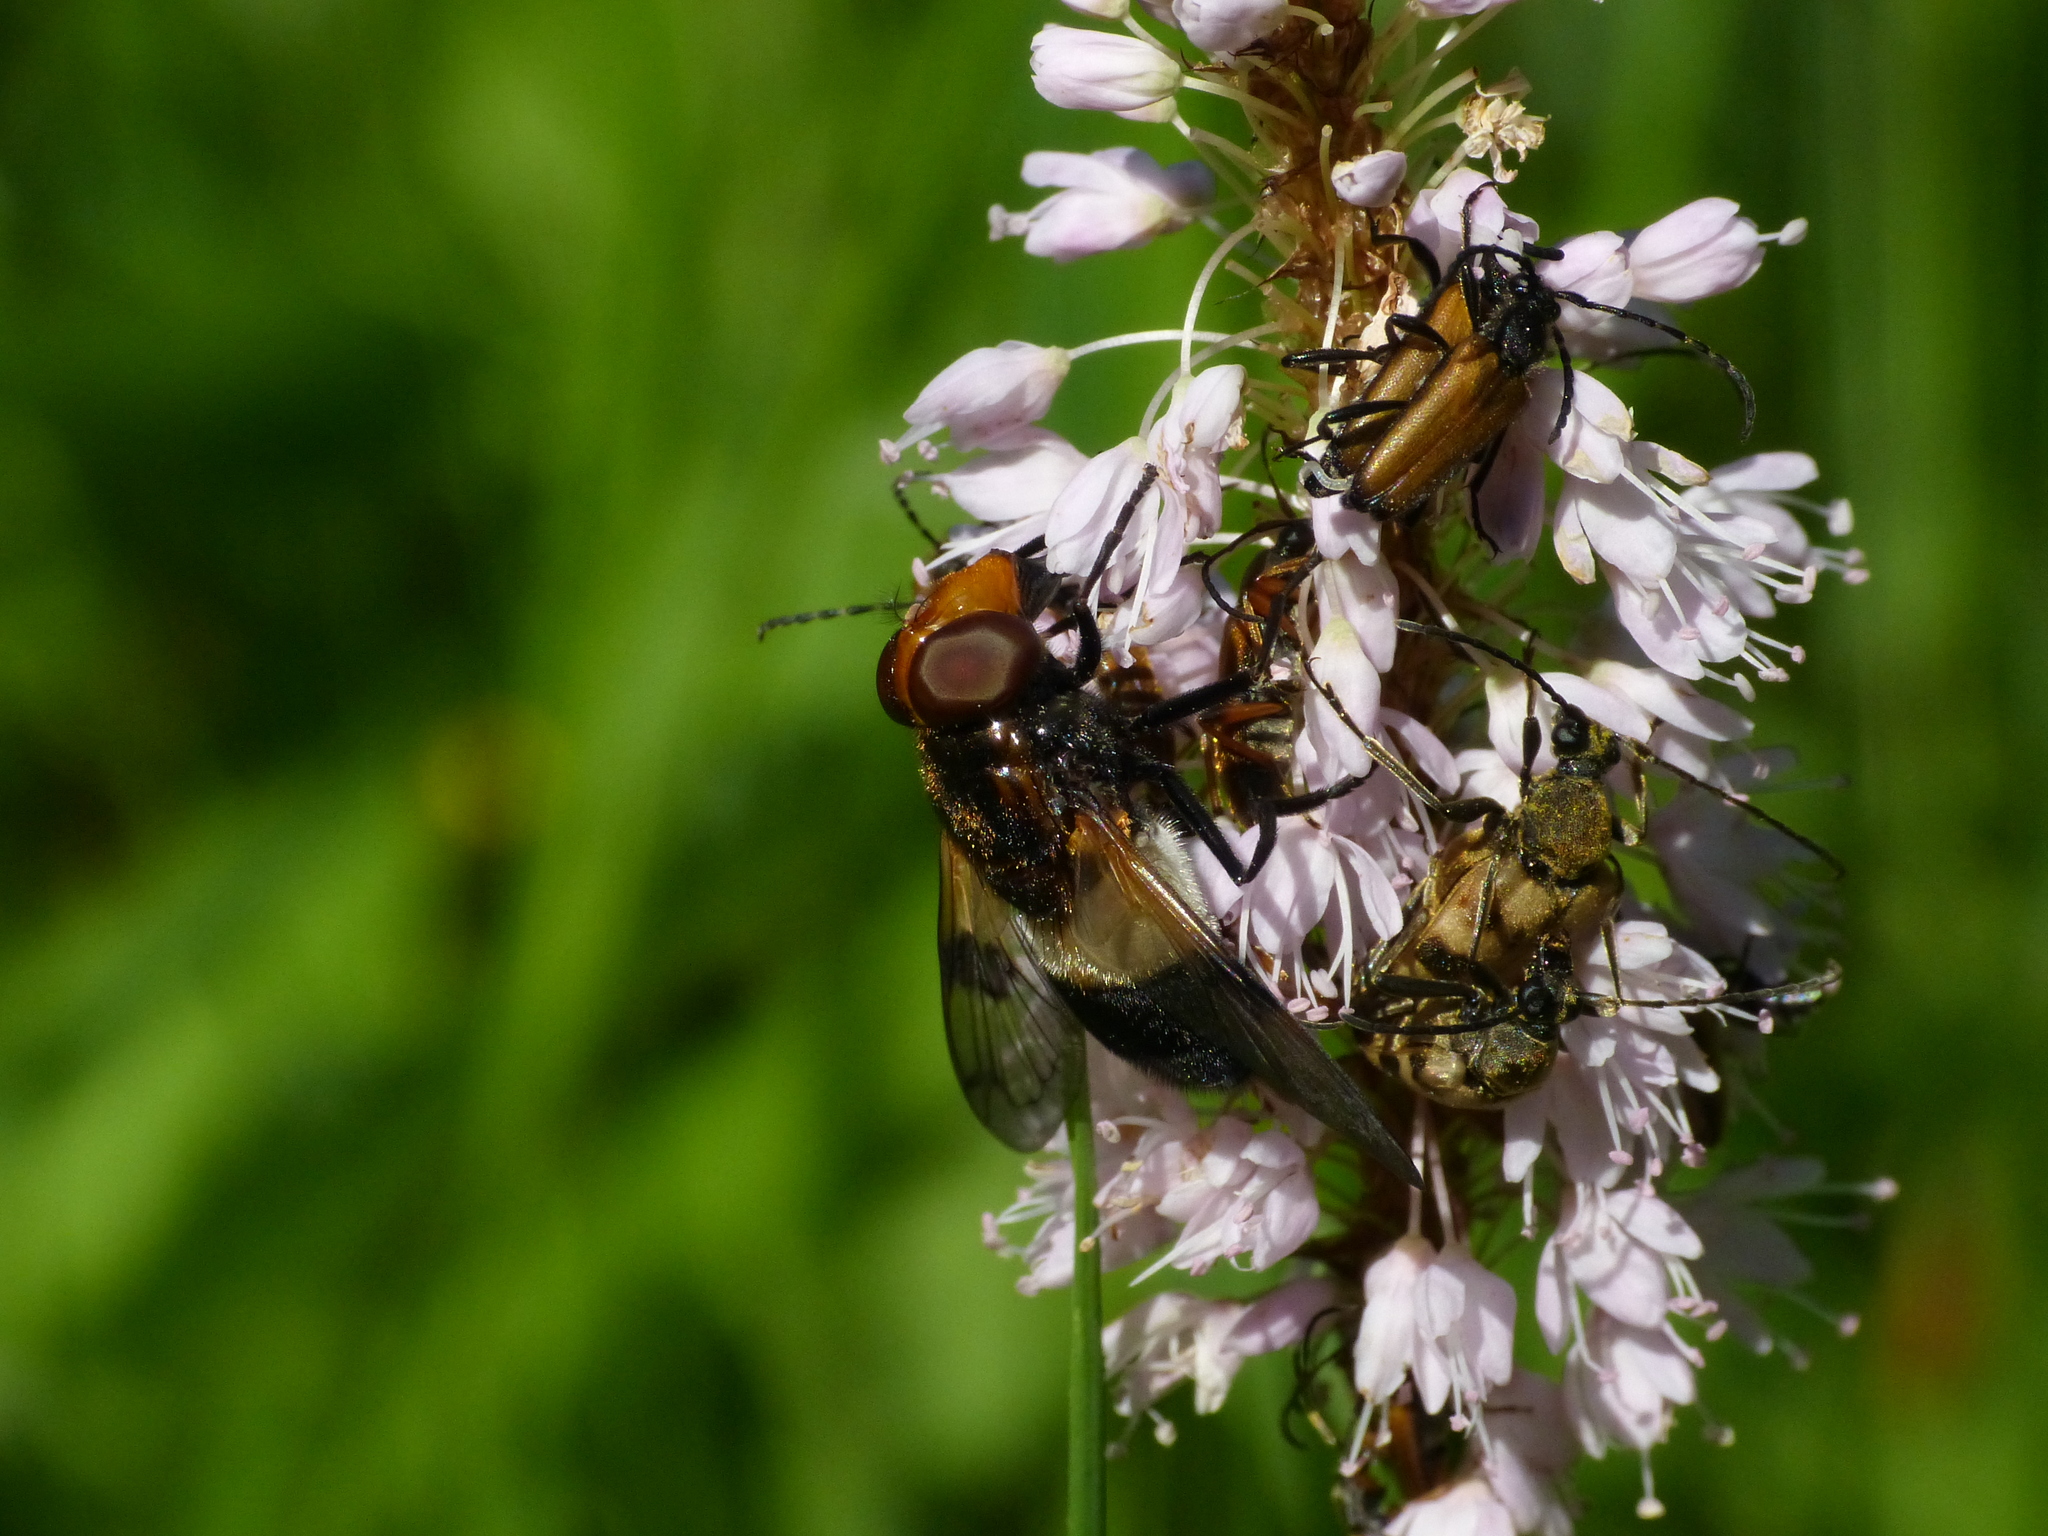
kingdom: Animalia
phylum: Arthropoda
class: Insecta
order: Diptera
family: Syrphidae
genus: Volucella
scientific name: Volucella pellucens
